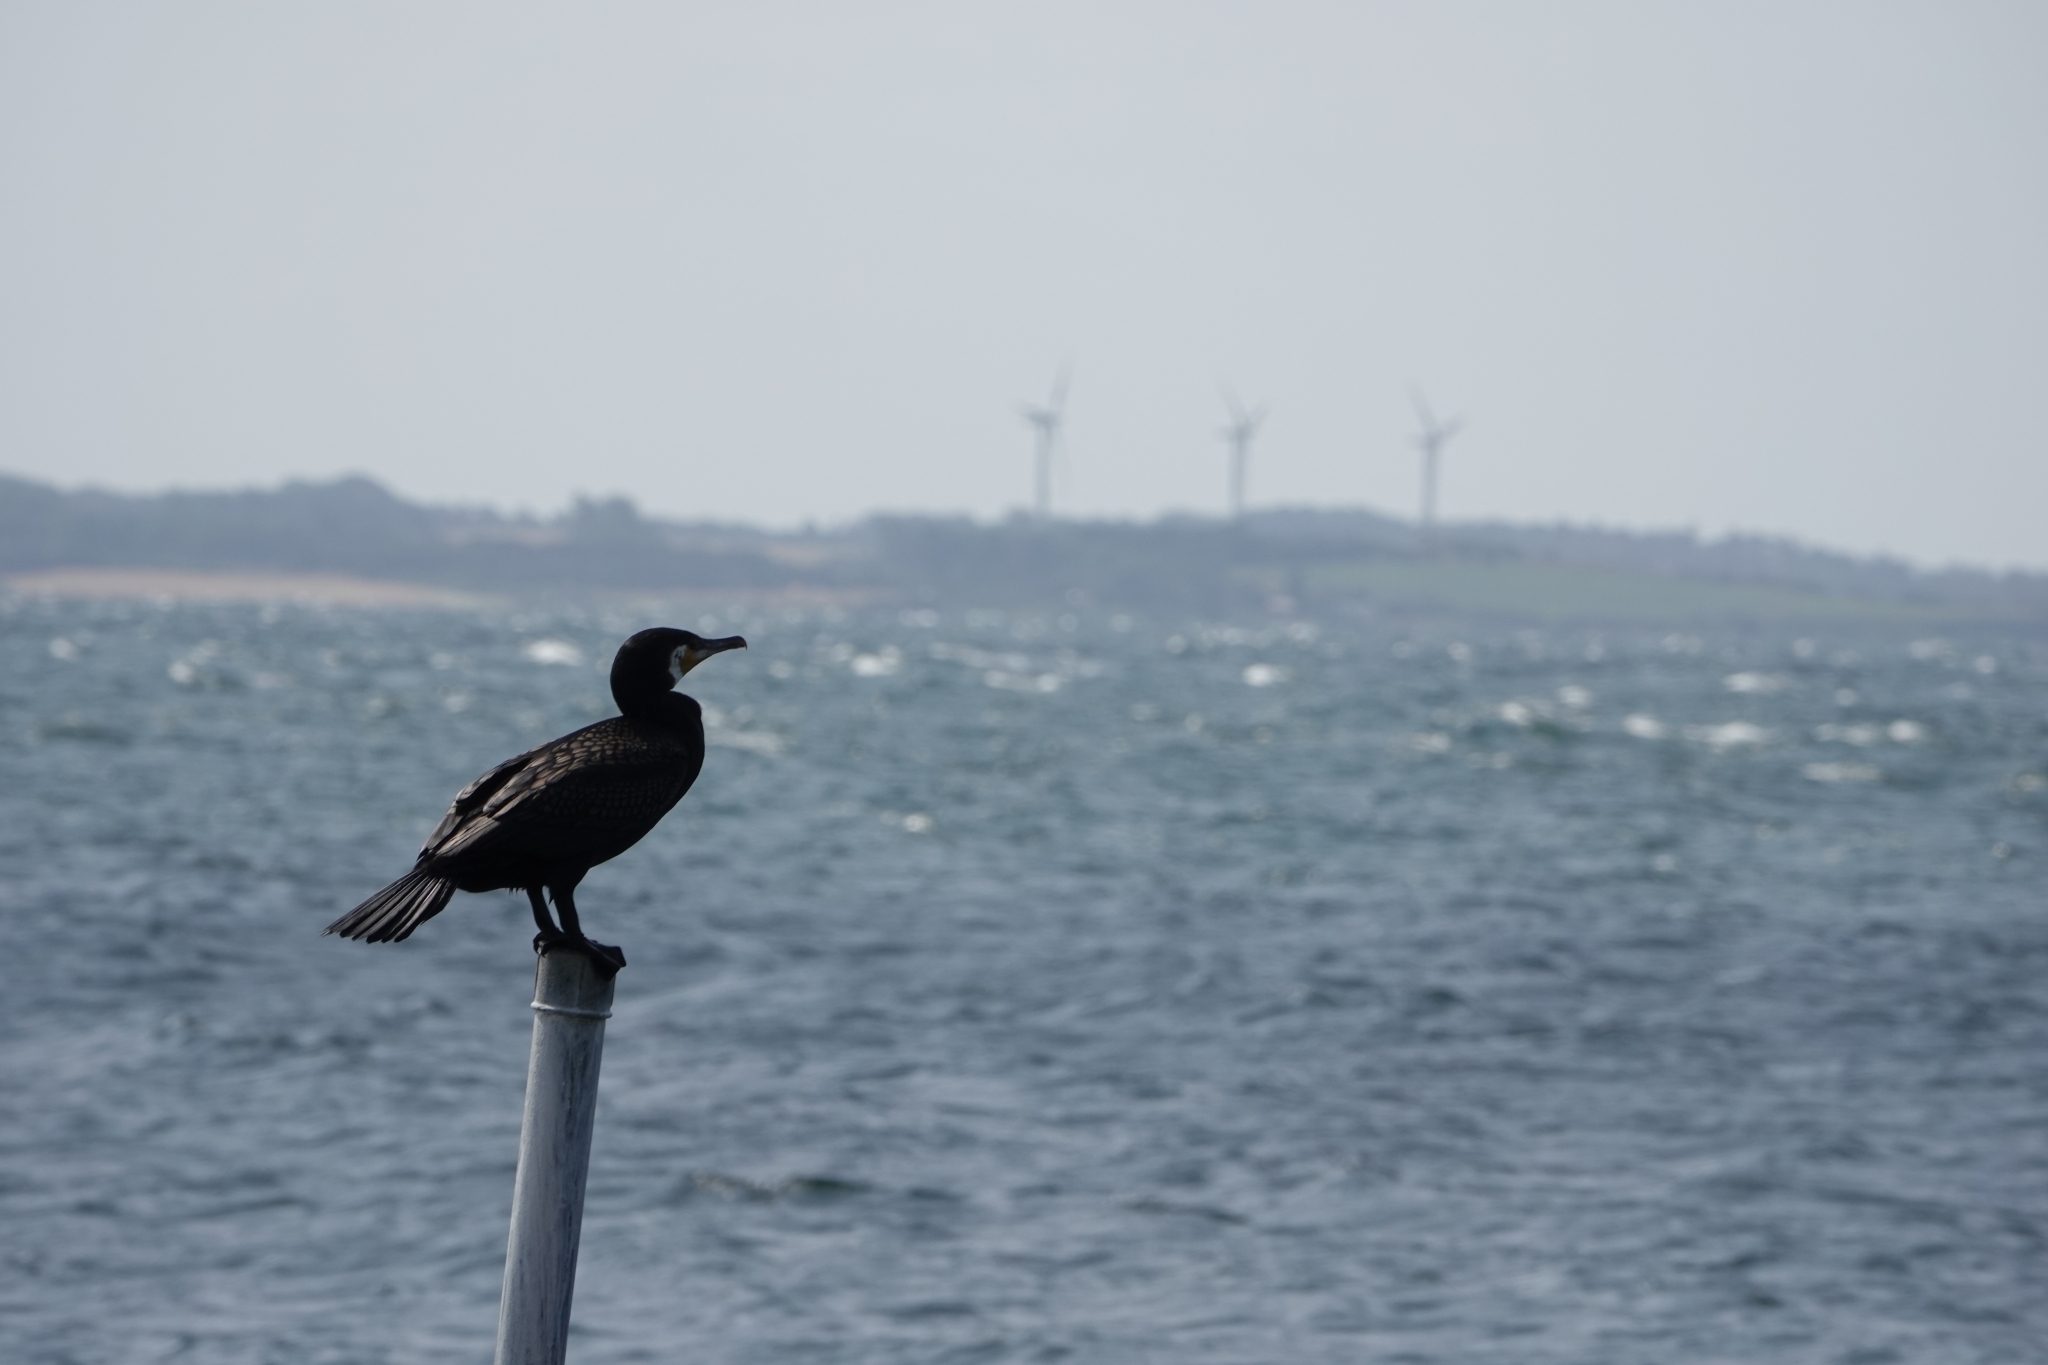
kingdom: Animalia
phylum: Chordata
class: Aves
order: Suliformes
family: Phalacrocoracidae
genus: Phalacrocorax
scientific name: Phalacrocorax carbo
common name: Great cormorant
